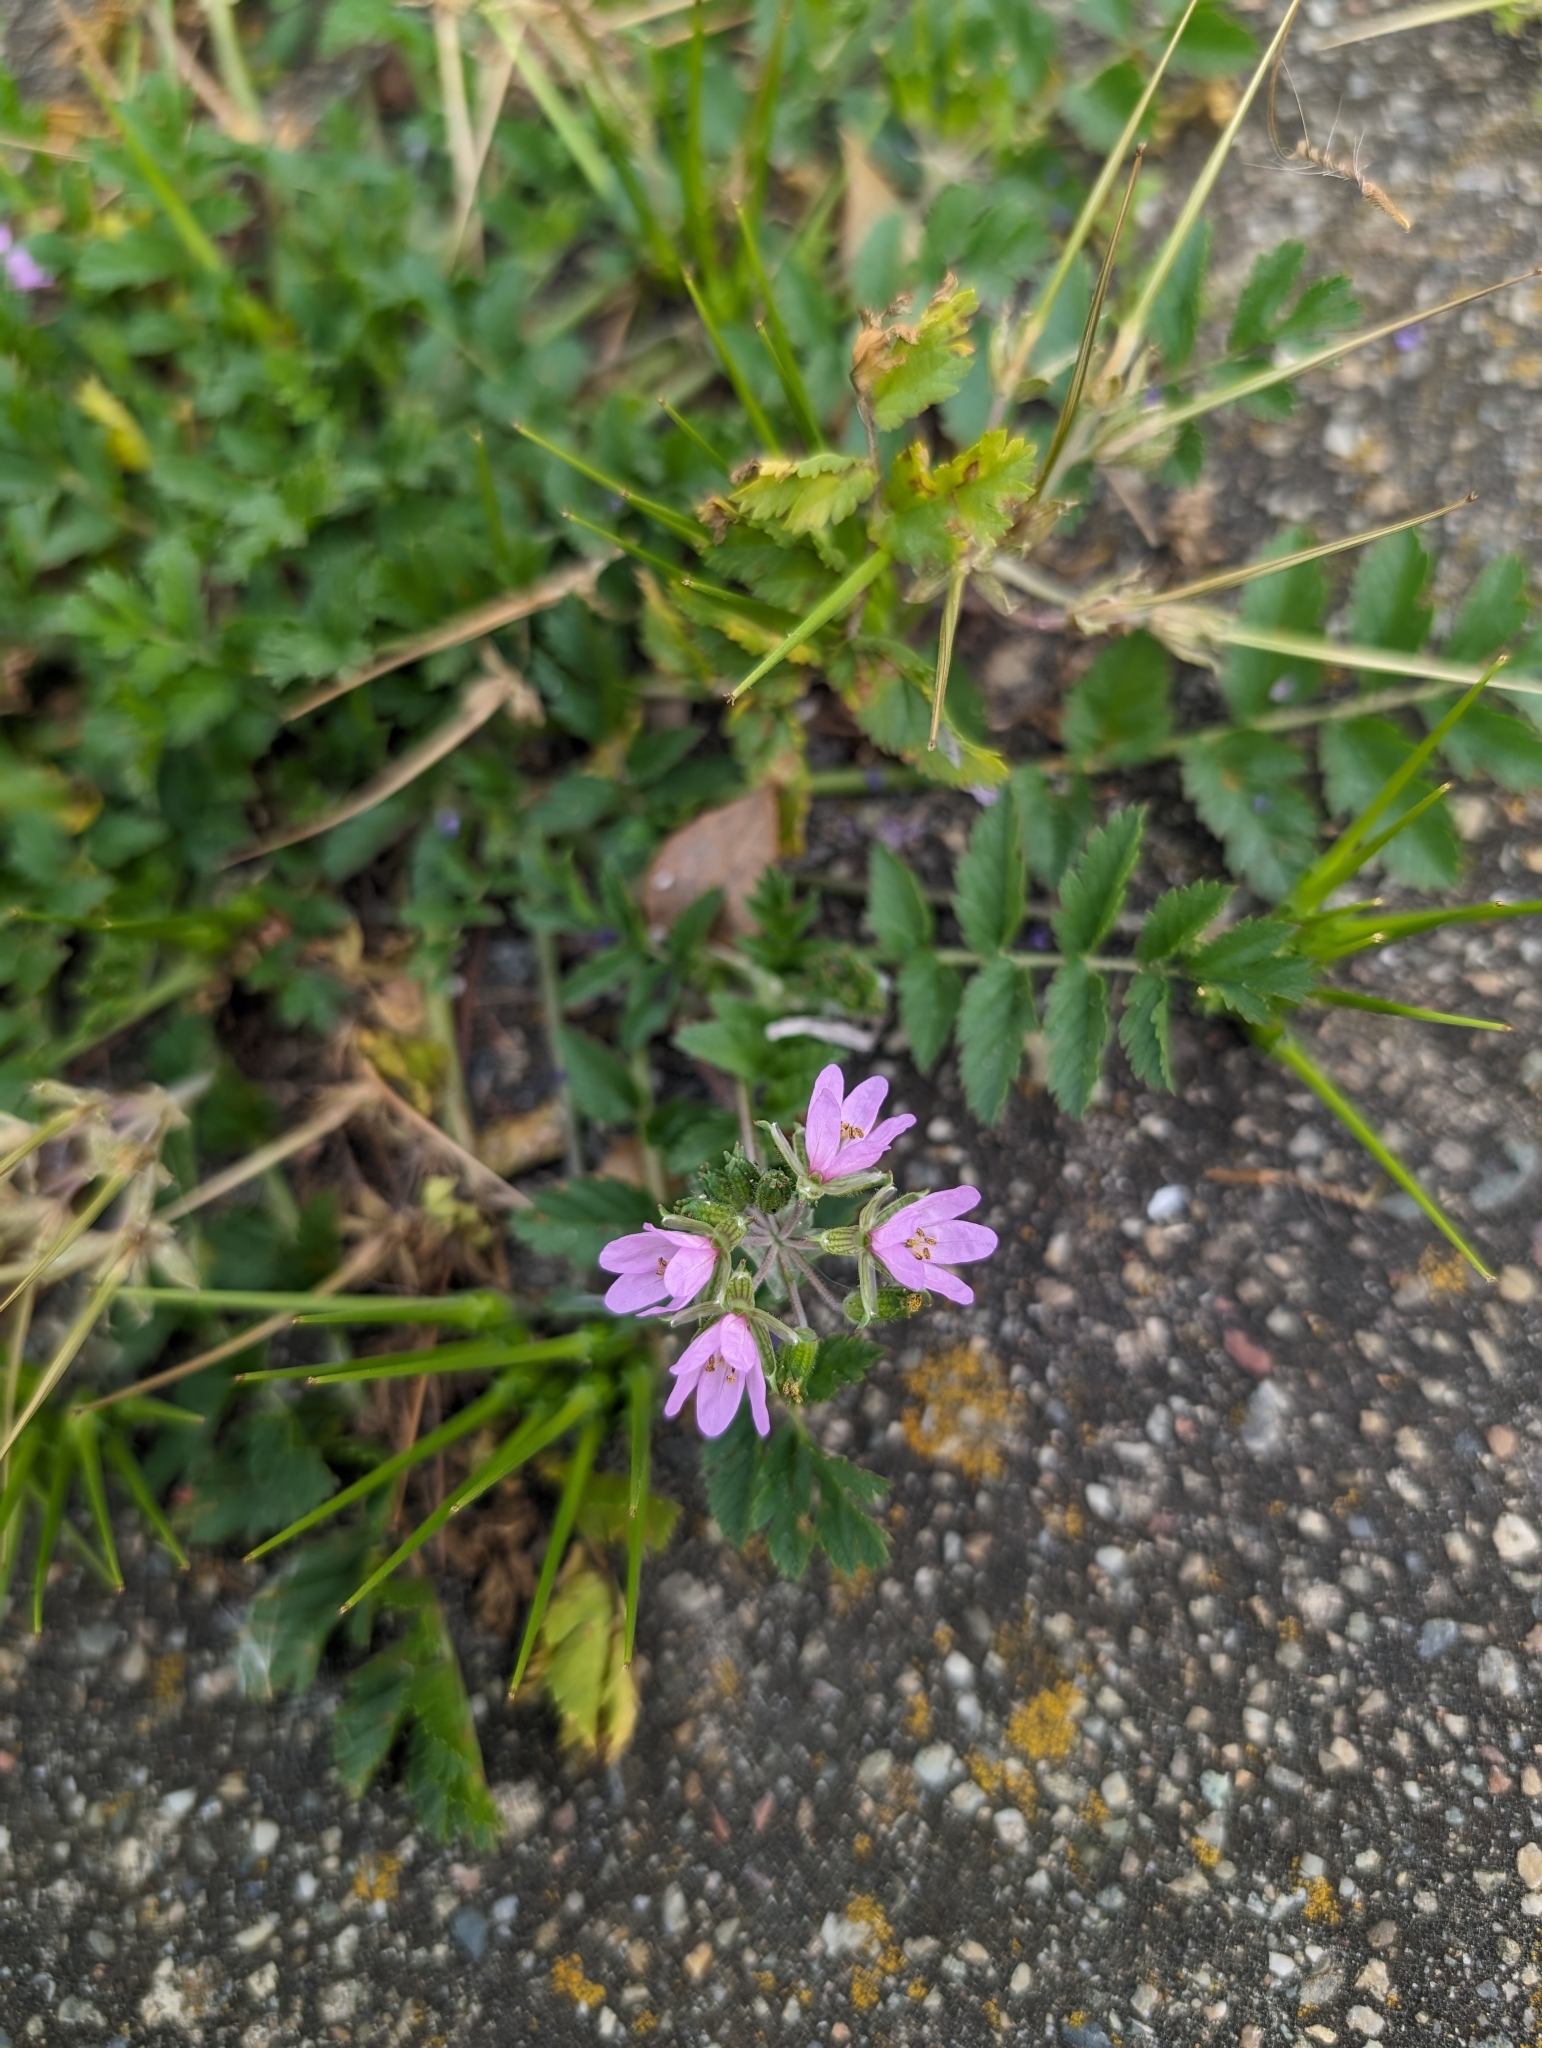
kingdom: Plantae
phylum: Tracheophyta
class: Magnoliopsida
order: Geraniales
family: Geraniaceae
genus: Erodium
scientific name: Erodium moschatum
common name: Musk stork's-bill
